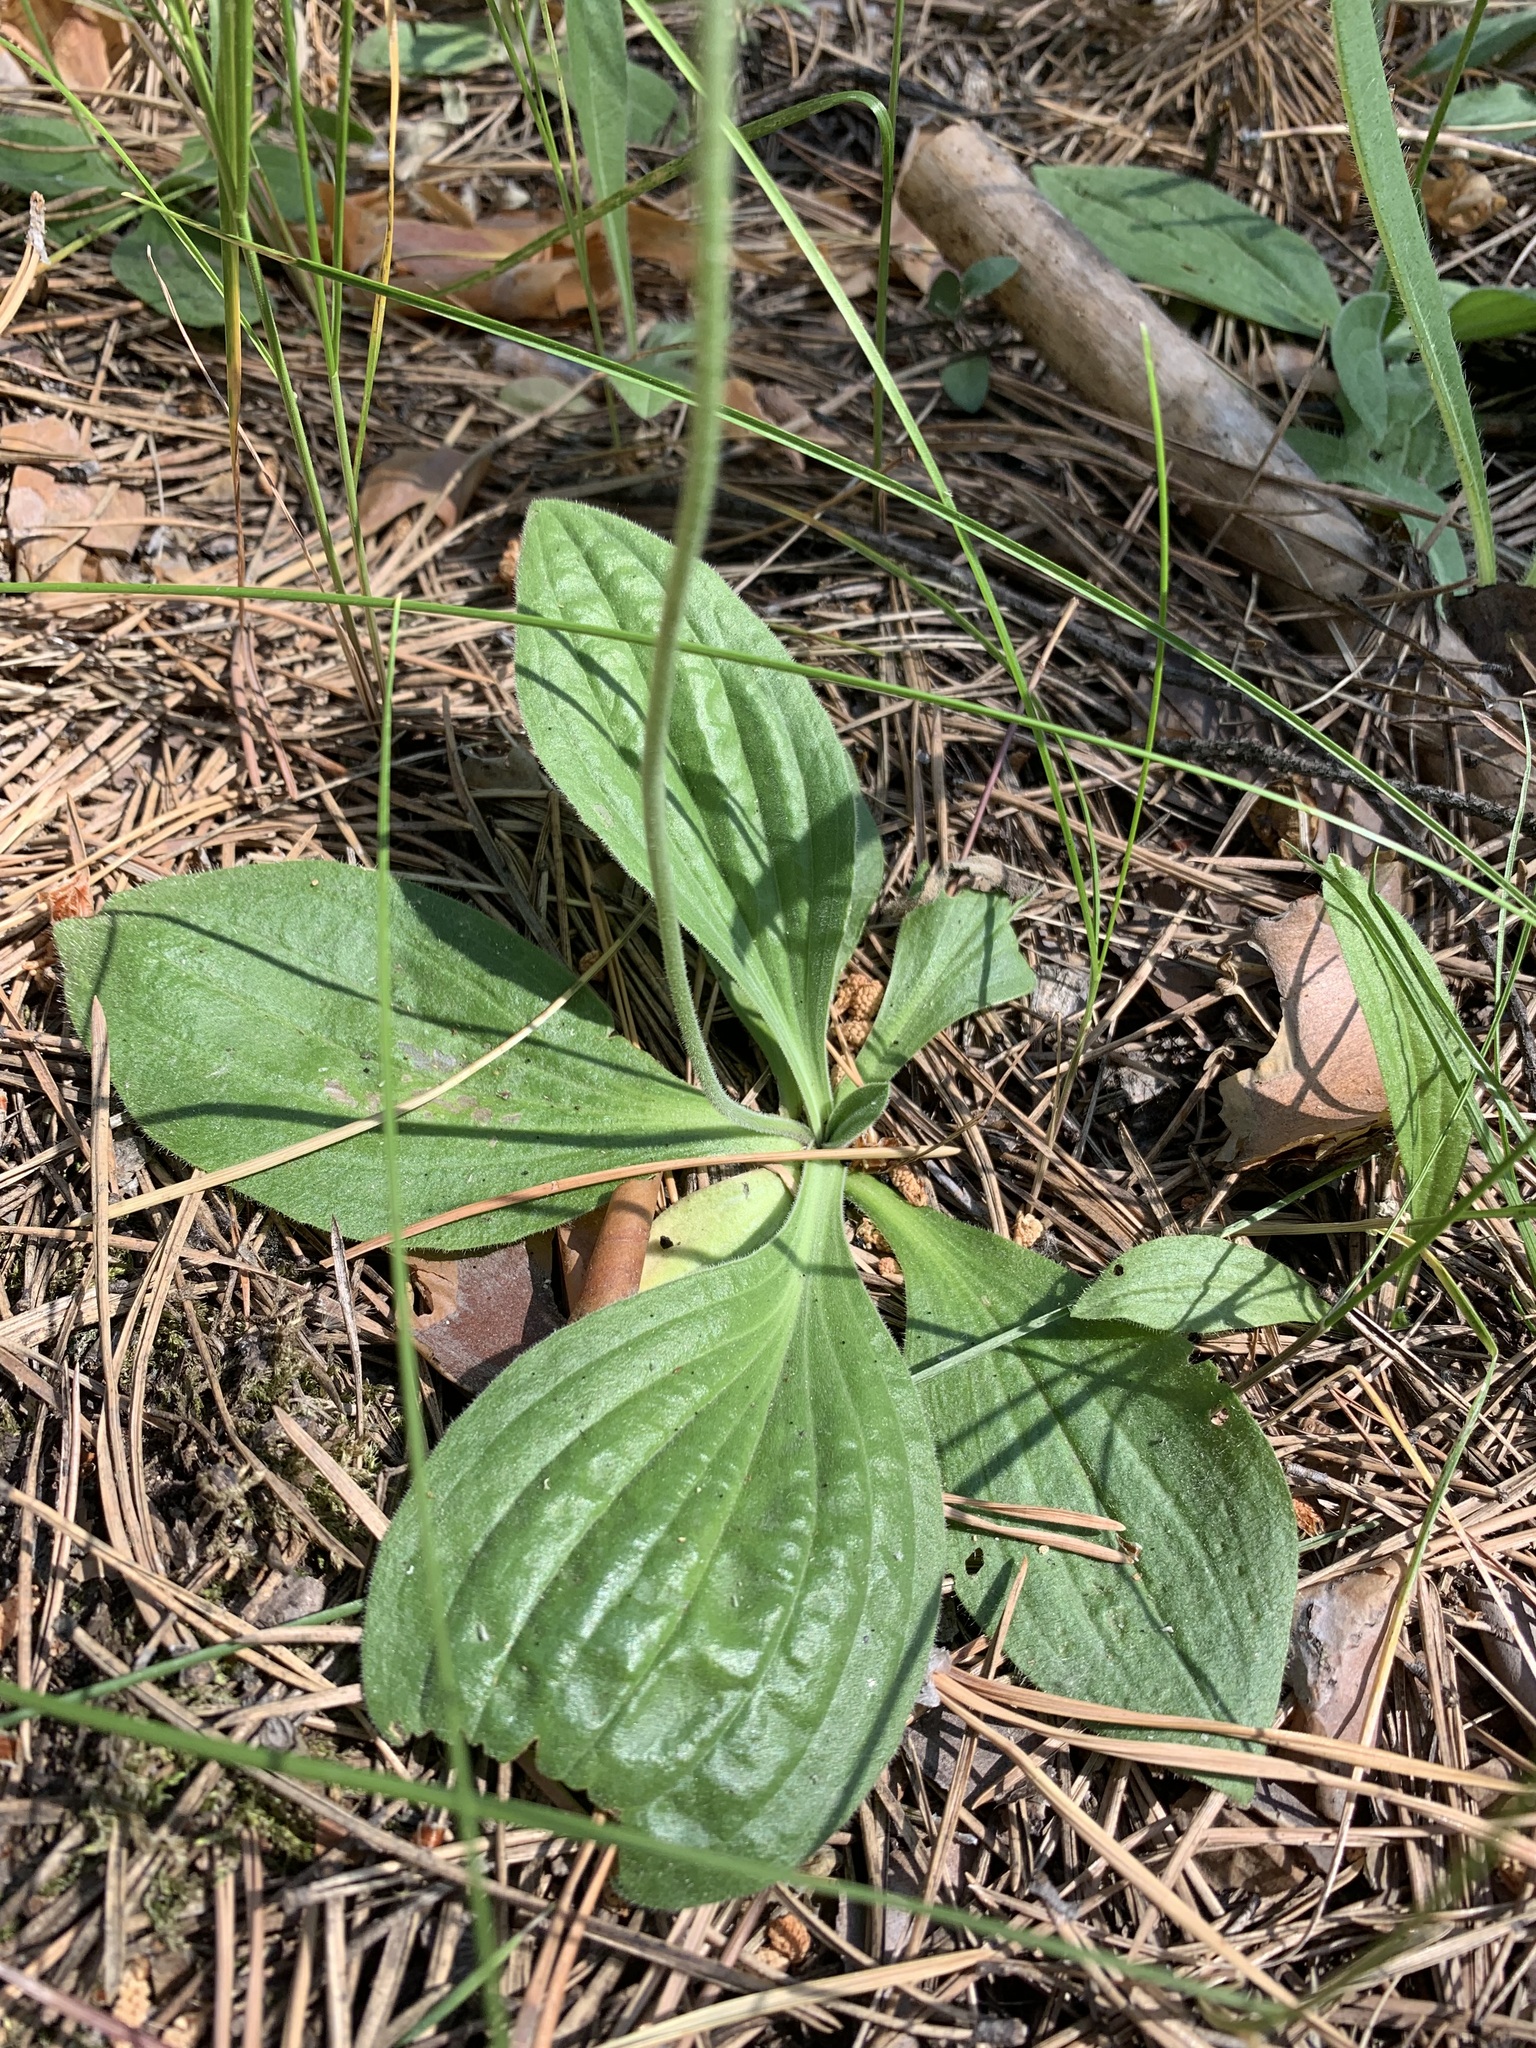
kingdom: Plantae
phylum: Tracheophyta
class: Magnoliopsida
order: Lamiales
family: Plantaginaceae
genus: Plantago
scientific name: Plantago media
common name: Hoary plantain
